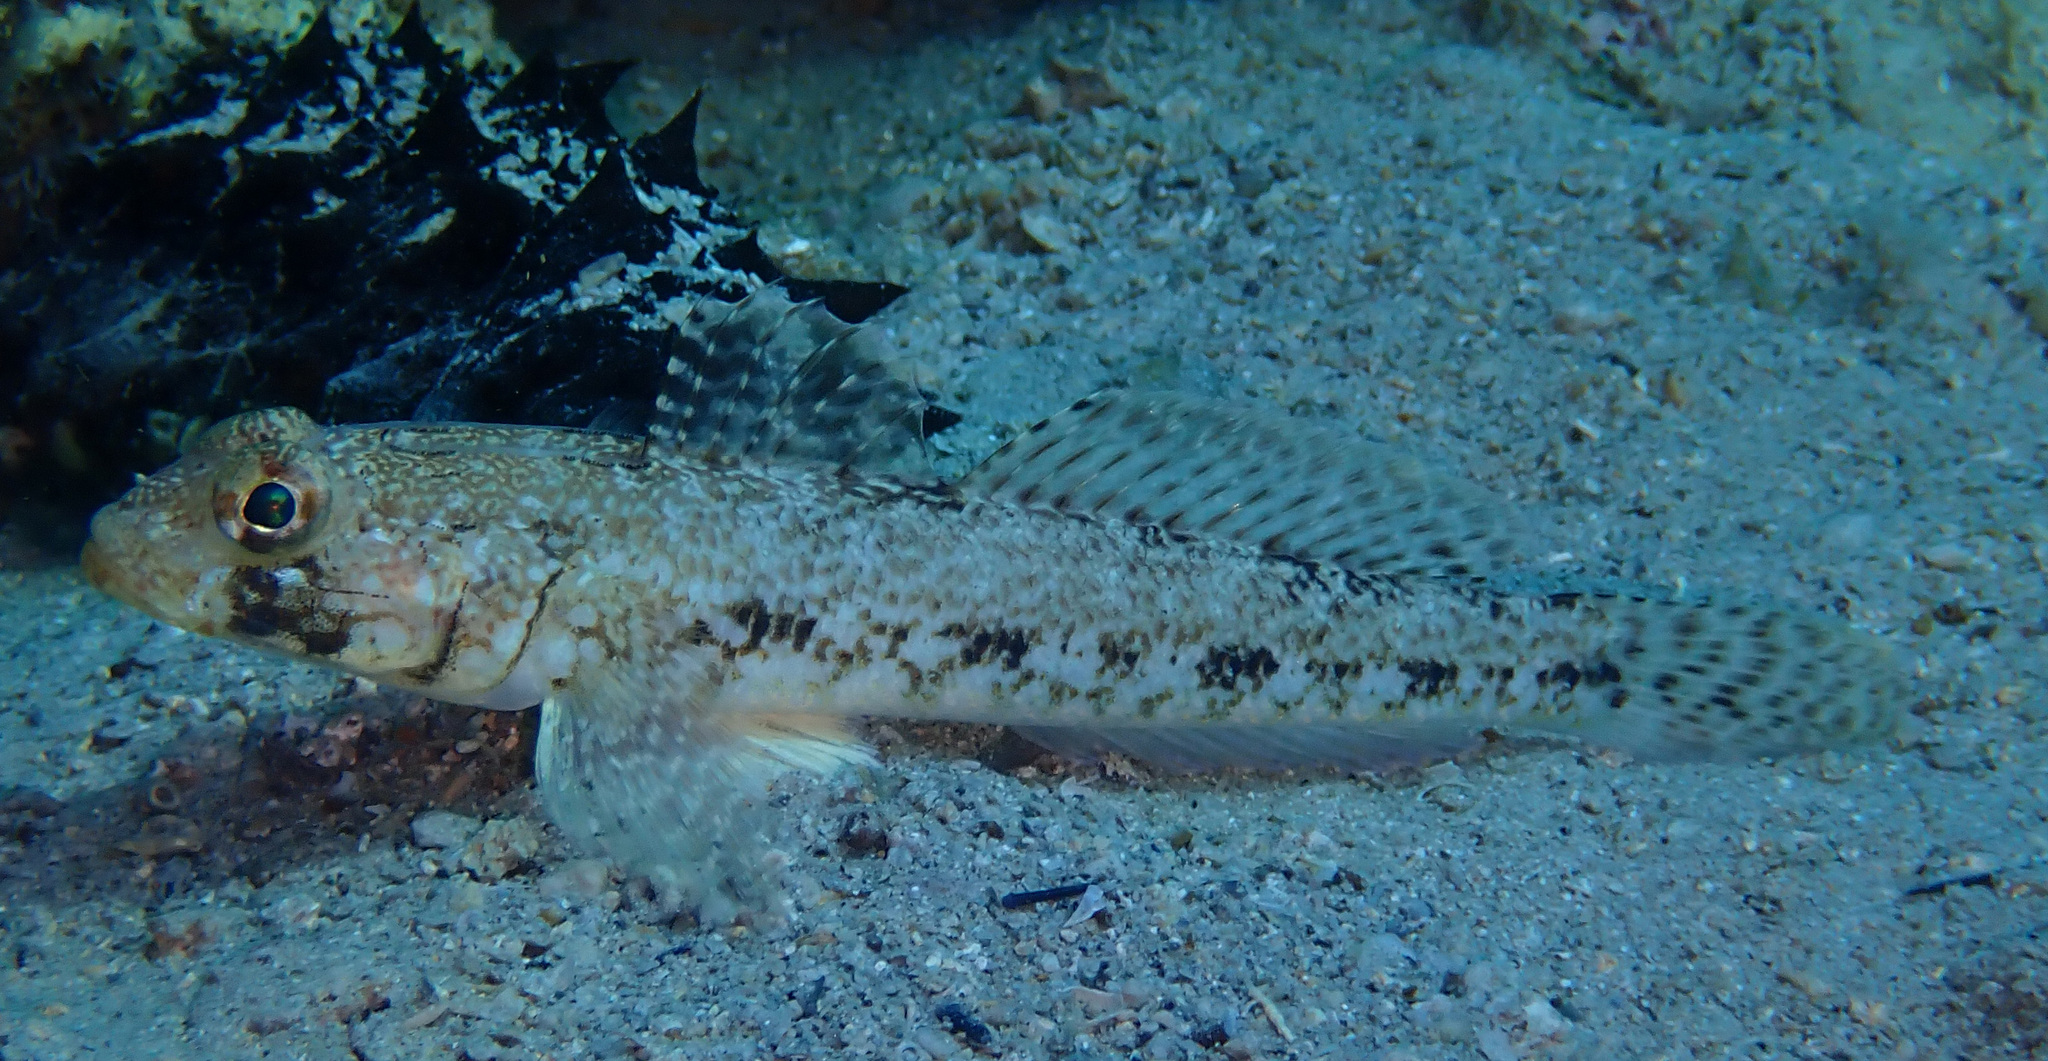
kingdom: Animalia
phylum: Chordata
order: Perciformes
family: Gobiidae
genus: Gobius
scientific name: Gobius geniporus
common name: Slender goby
